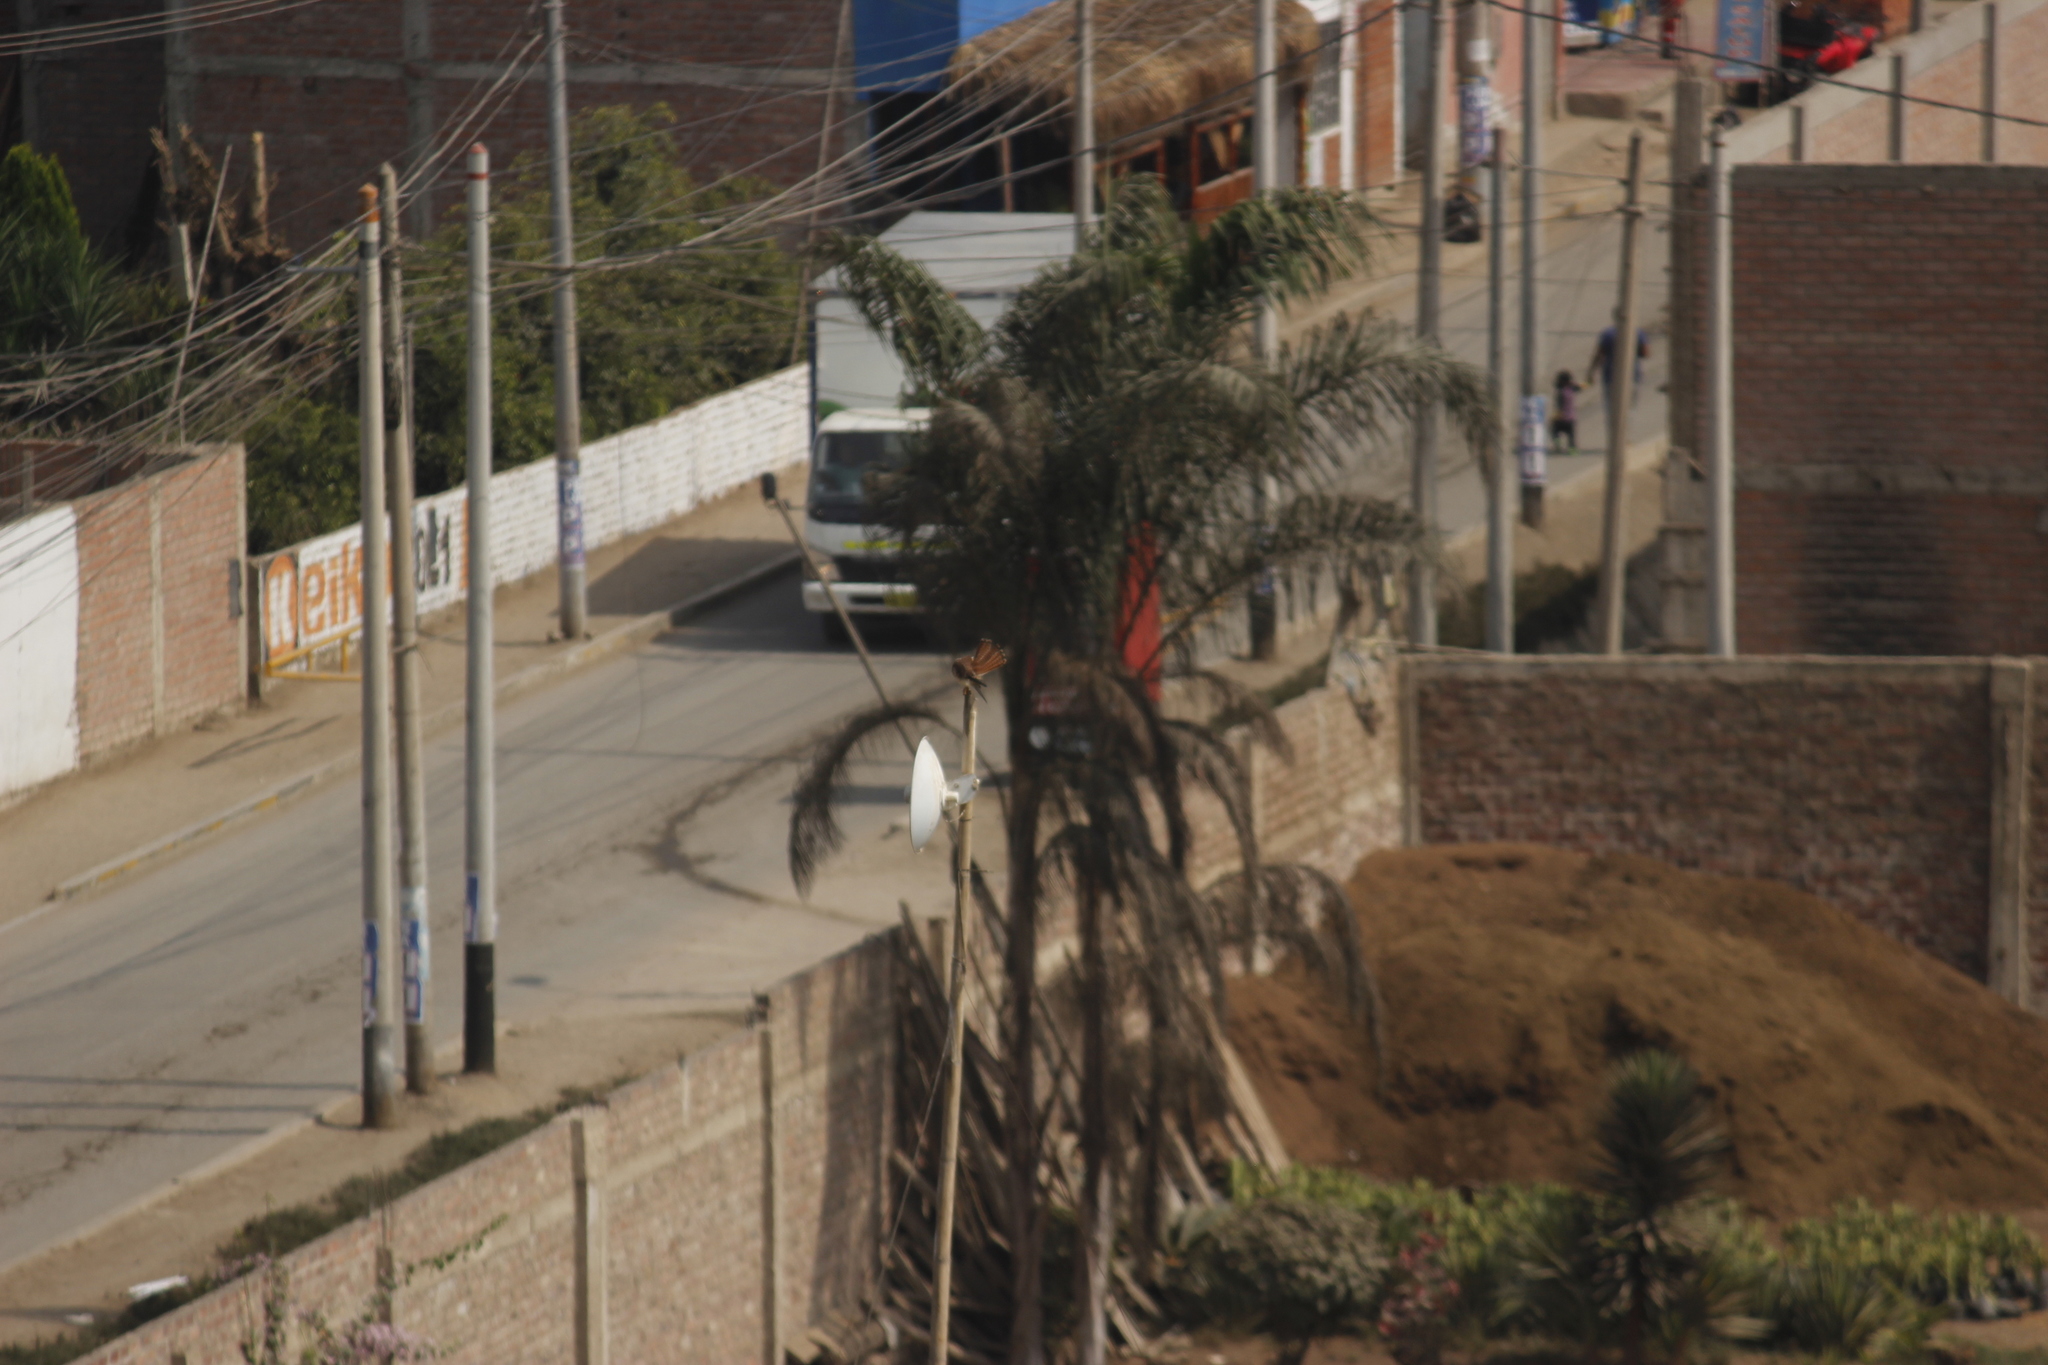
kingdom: Animalia
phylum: Chordata
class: Aves
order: Falconiformes
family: Falconidae
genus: Falco
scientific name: Falco sparverius
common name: American kestrel
